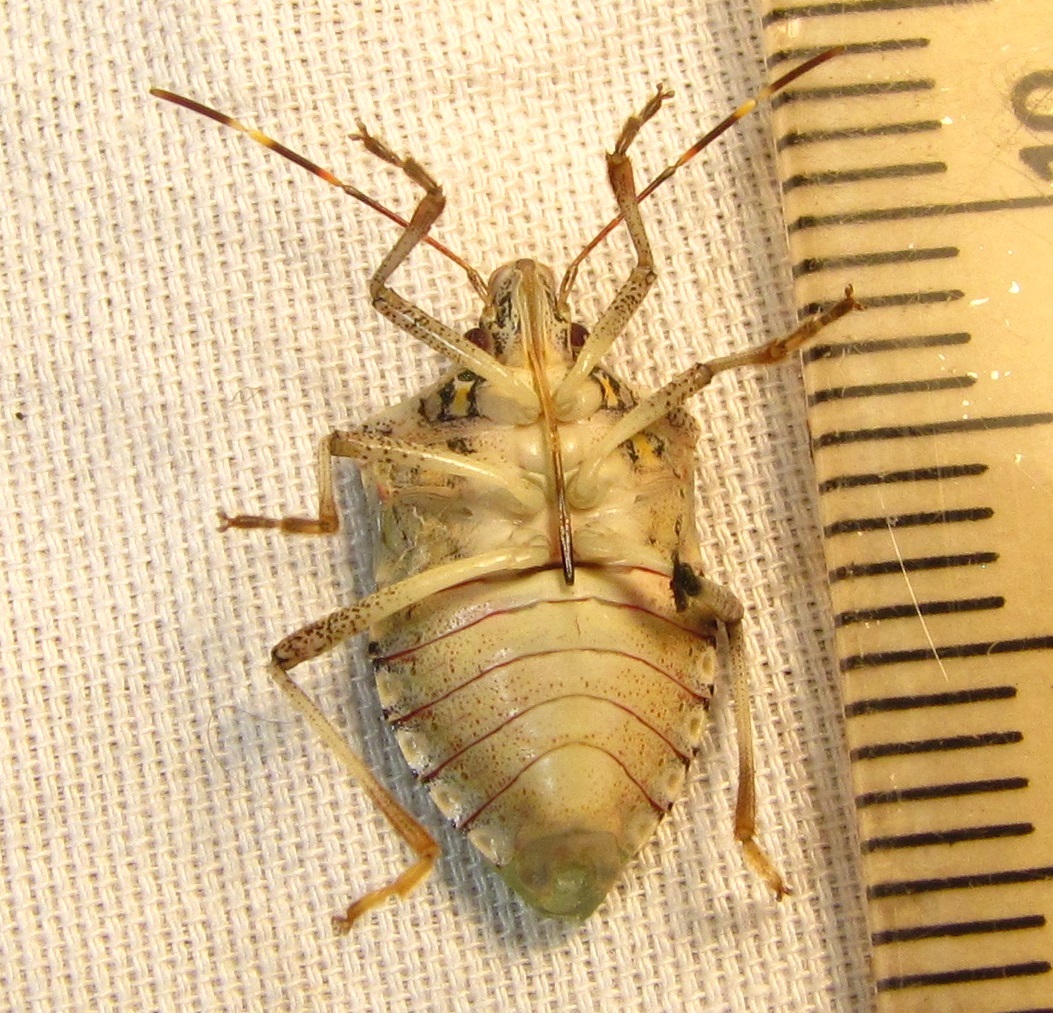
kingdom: Animalia
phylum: Arthropoda
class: Insecta
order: Hemiptera
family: Pentatomidae
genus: Halyomorpha
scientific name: Halyomorpha halys
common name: Brown marmorated stink bug
